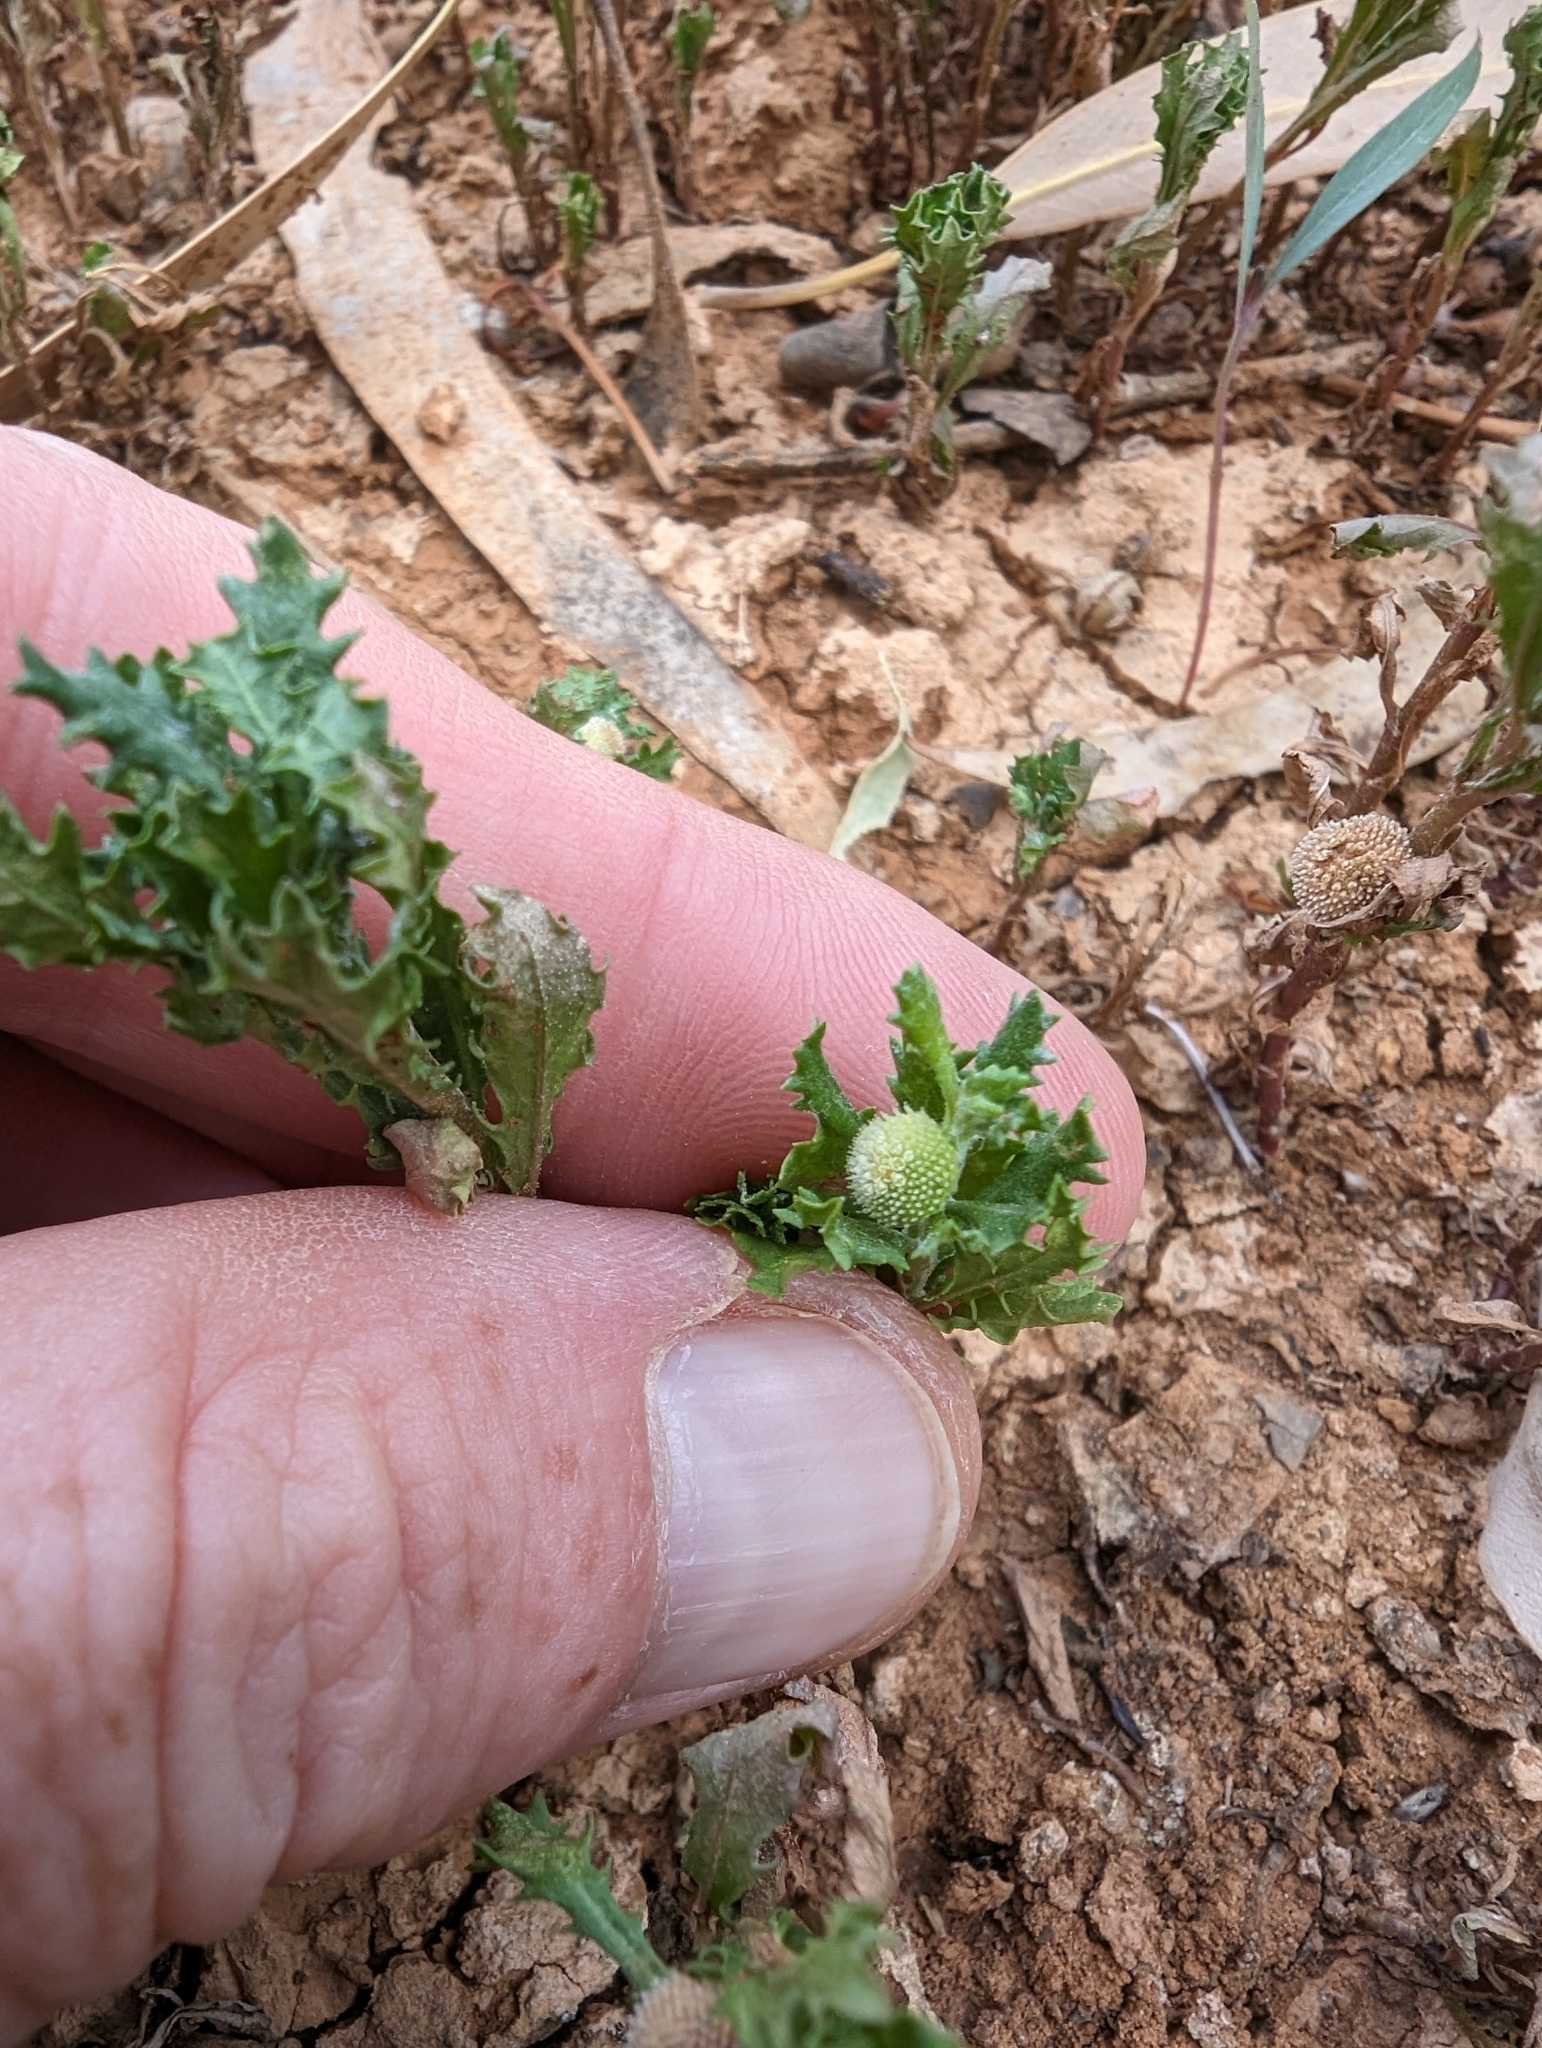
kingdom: Plantae
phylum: Tracheophyta
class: Magnoliopsida
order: Asterales
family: Asteraceae
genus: Centipeda
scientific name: Centipeda cunninghamii
